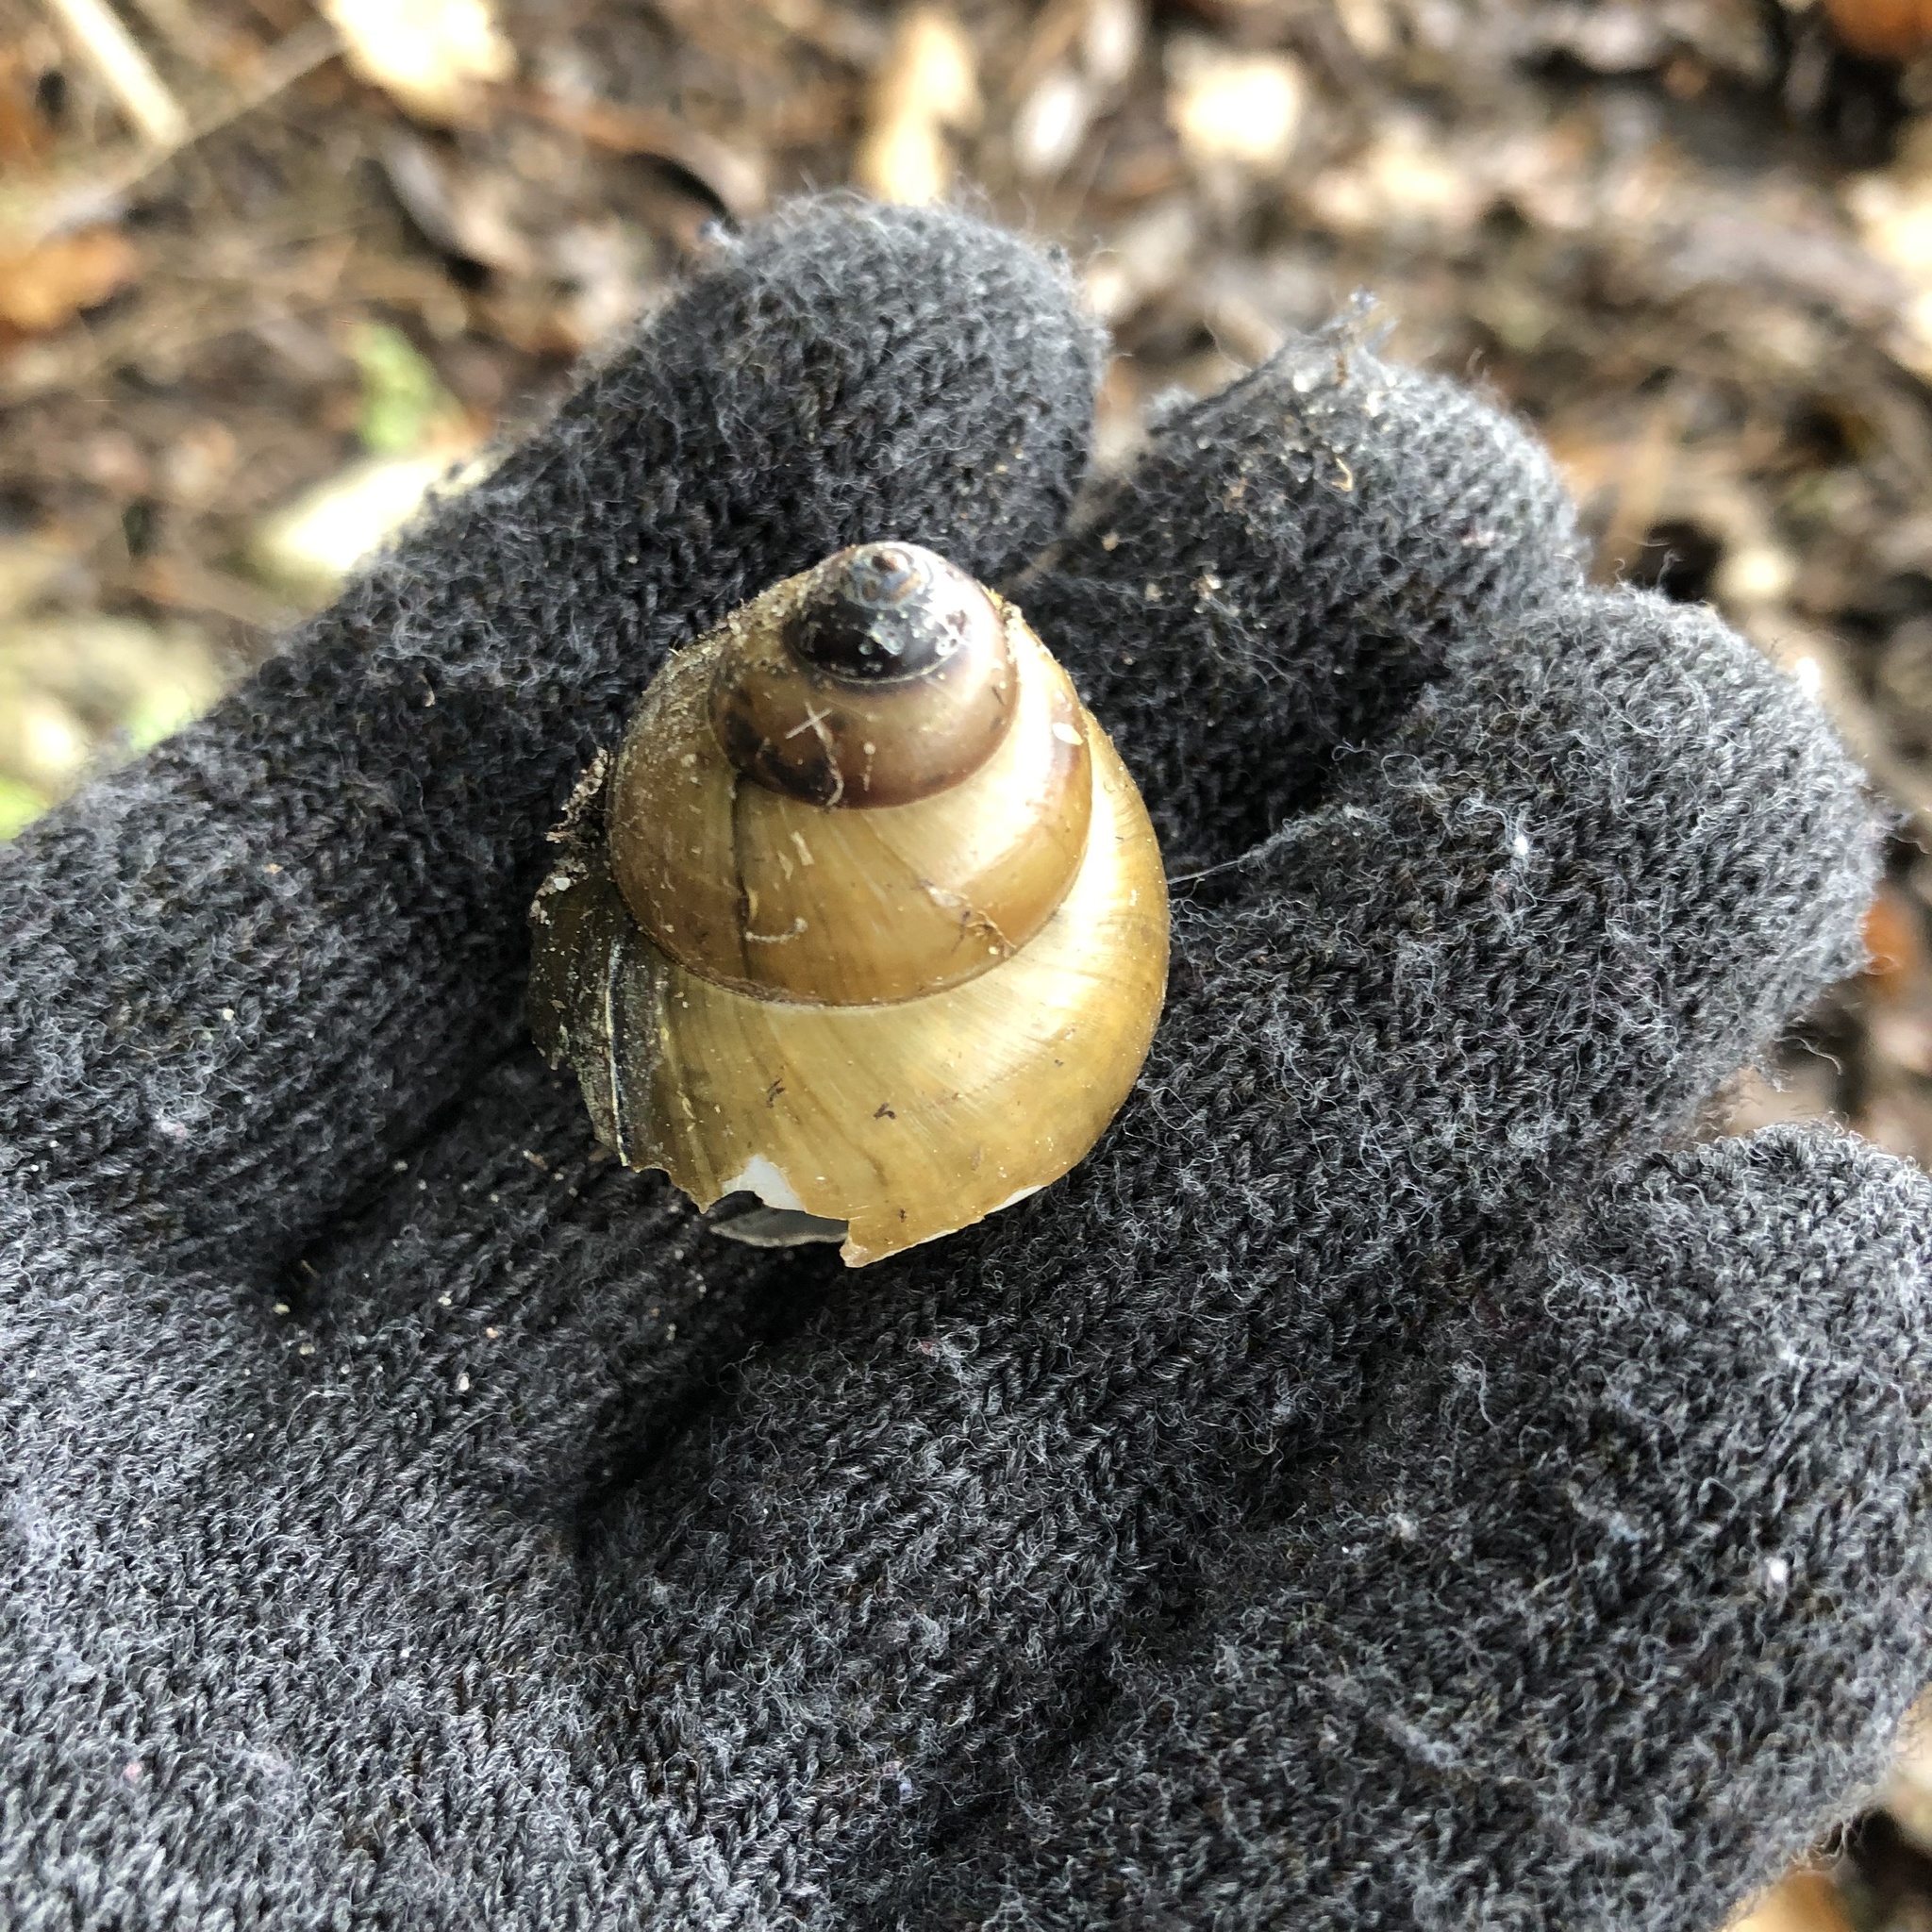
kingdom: Animalia
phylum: Mollusca
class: Gastropoda
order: Architaenioglossa
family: Viviparidae
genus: Cipangopaludina
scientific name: Cipangopaludina chinensis
